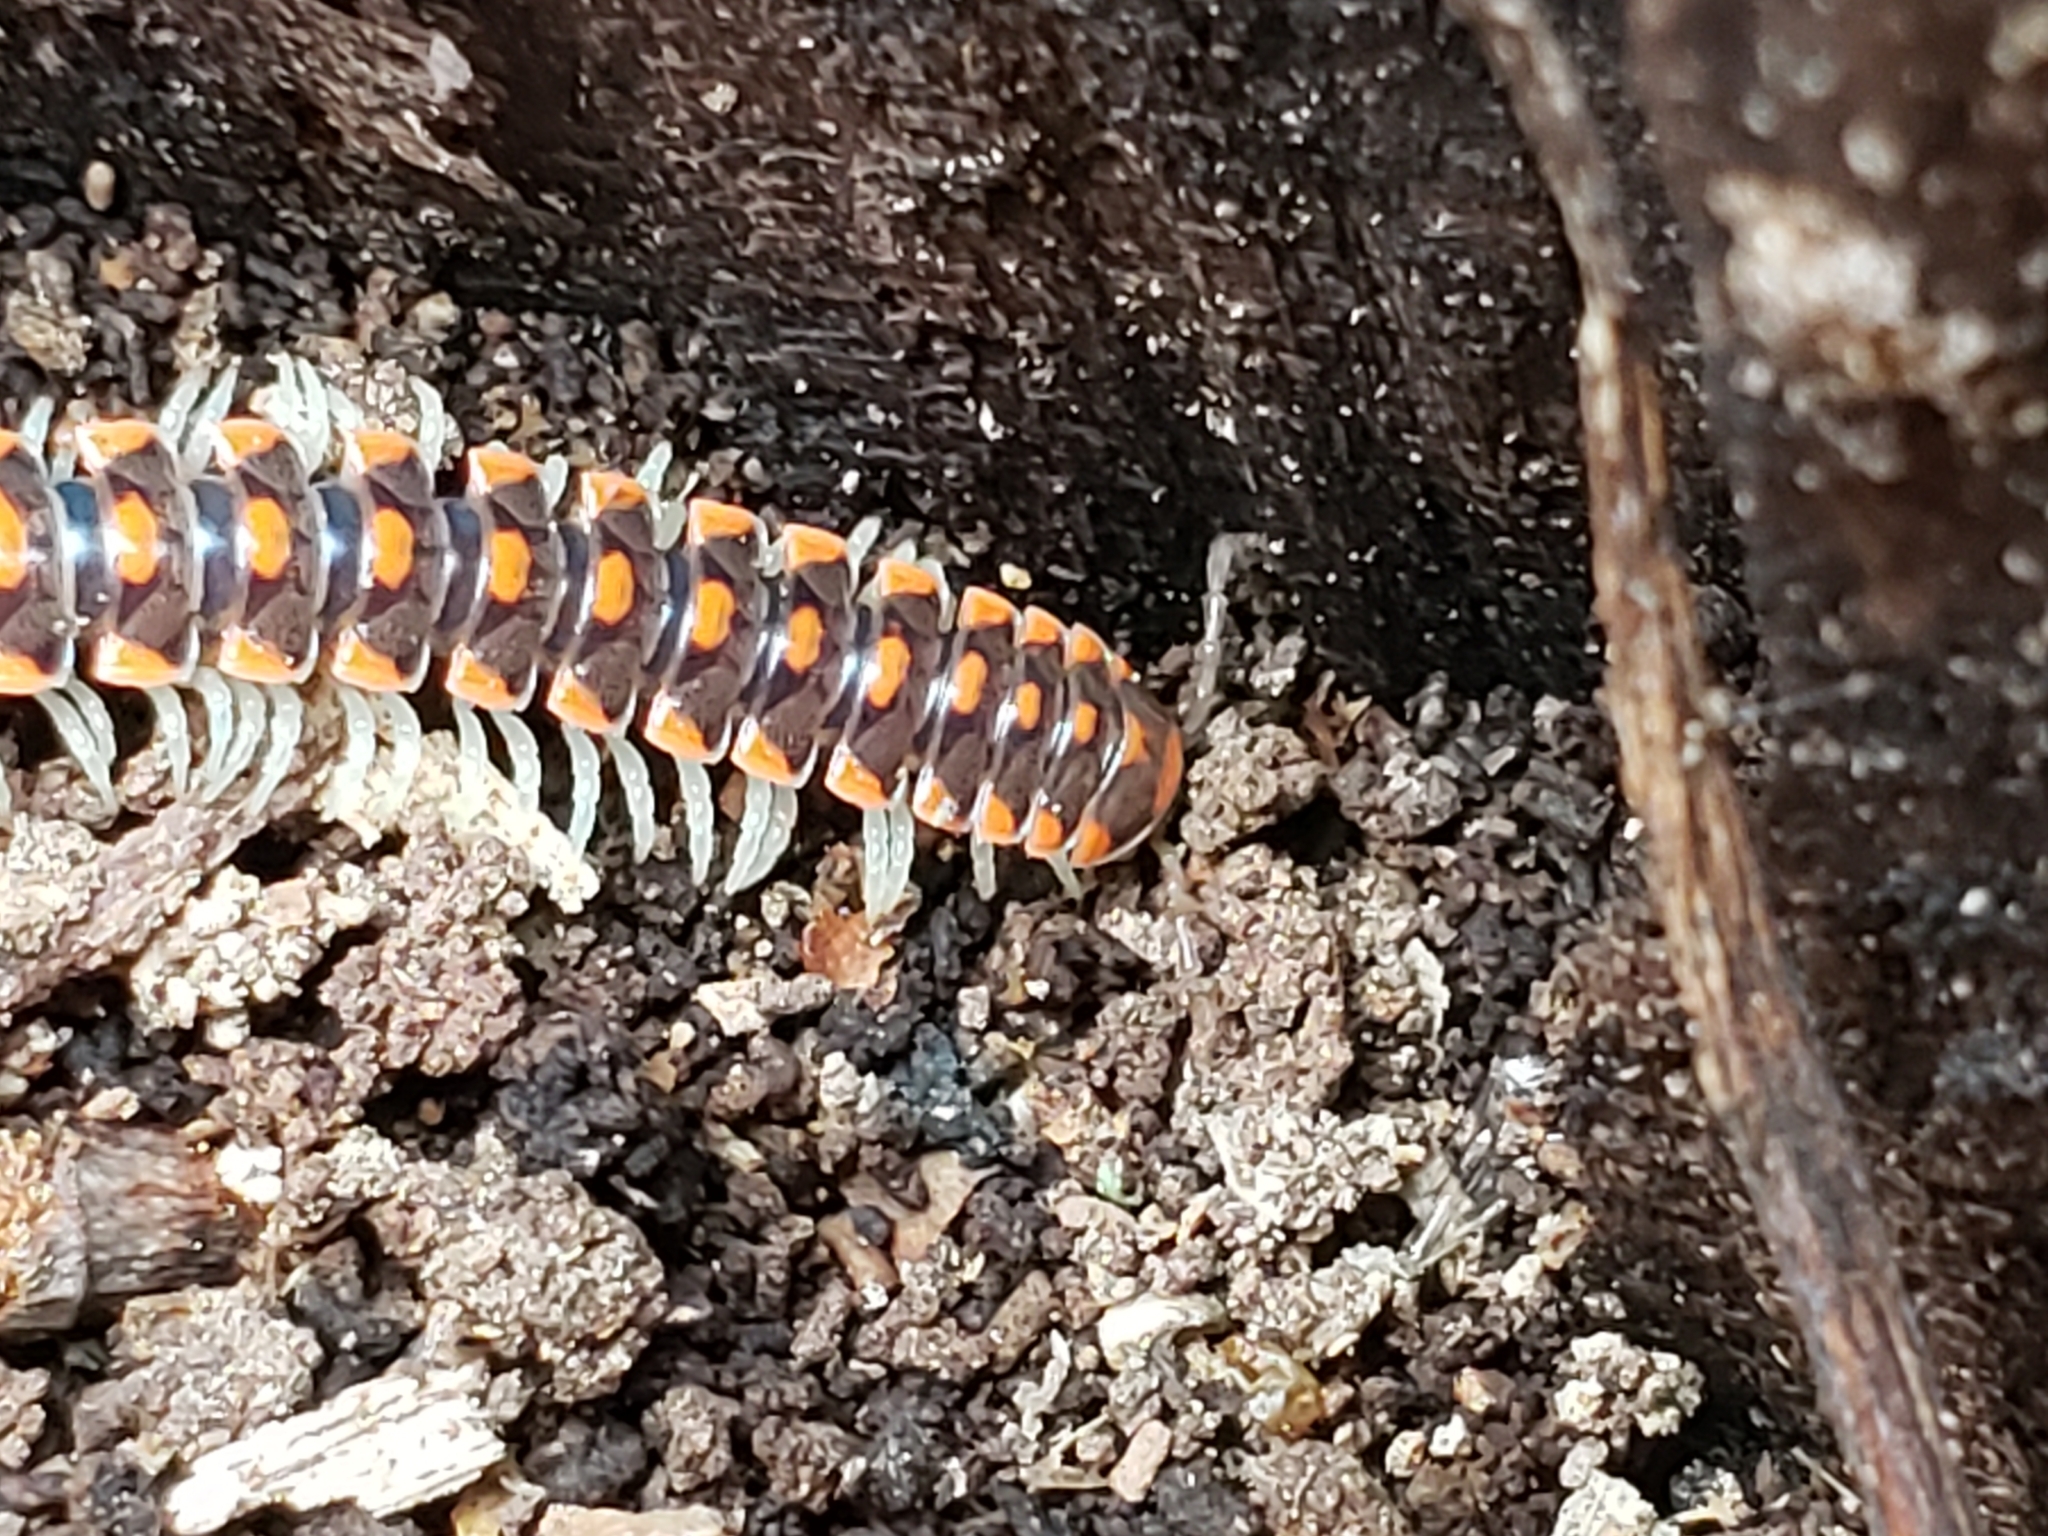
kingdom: Animalia
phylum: Arthropoda
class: Diplopoda
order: Polydesmida
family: Xystodesmidae
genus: Euryurus
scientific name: Euryurus leachii
